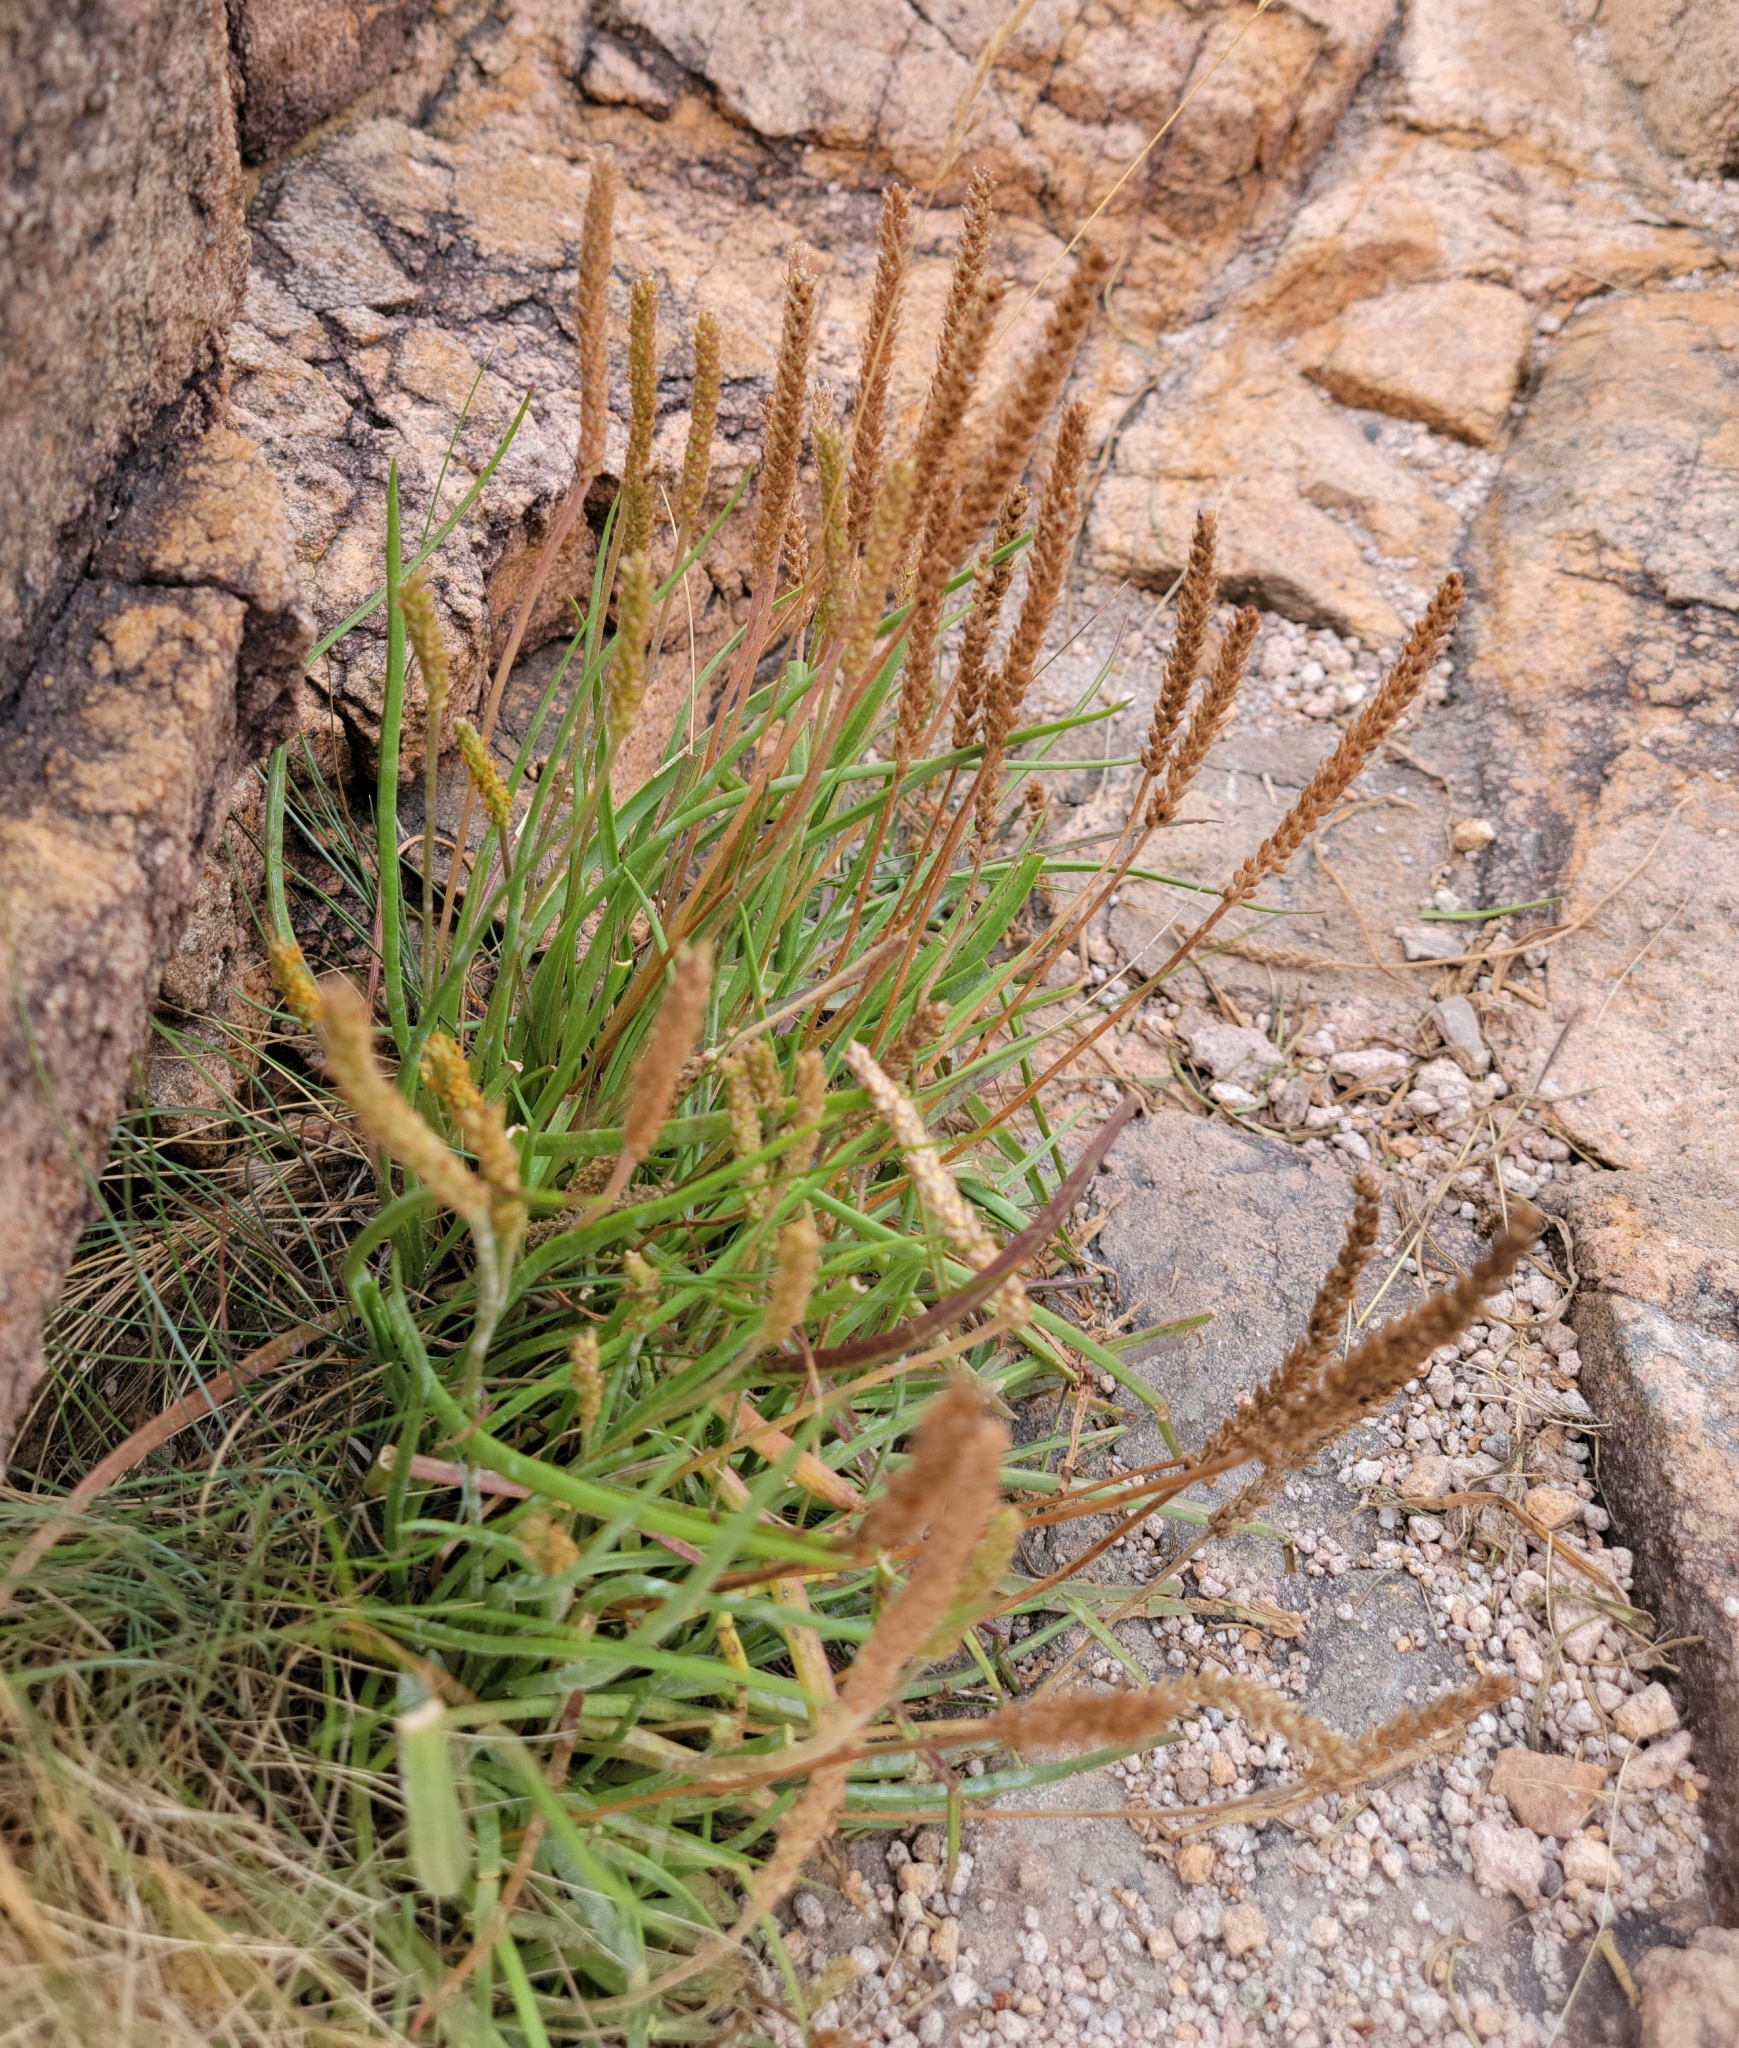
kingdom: Plantae
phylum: Tracheophyta
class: Magnoliopsida
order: Lamiales
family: Plantaginaceae
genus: Plantago
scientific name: Plantago maritima
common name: Sea plantain
